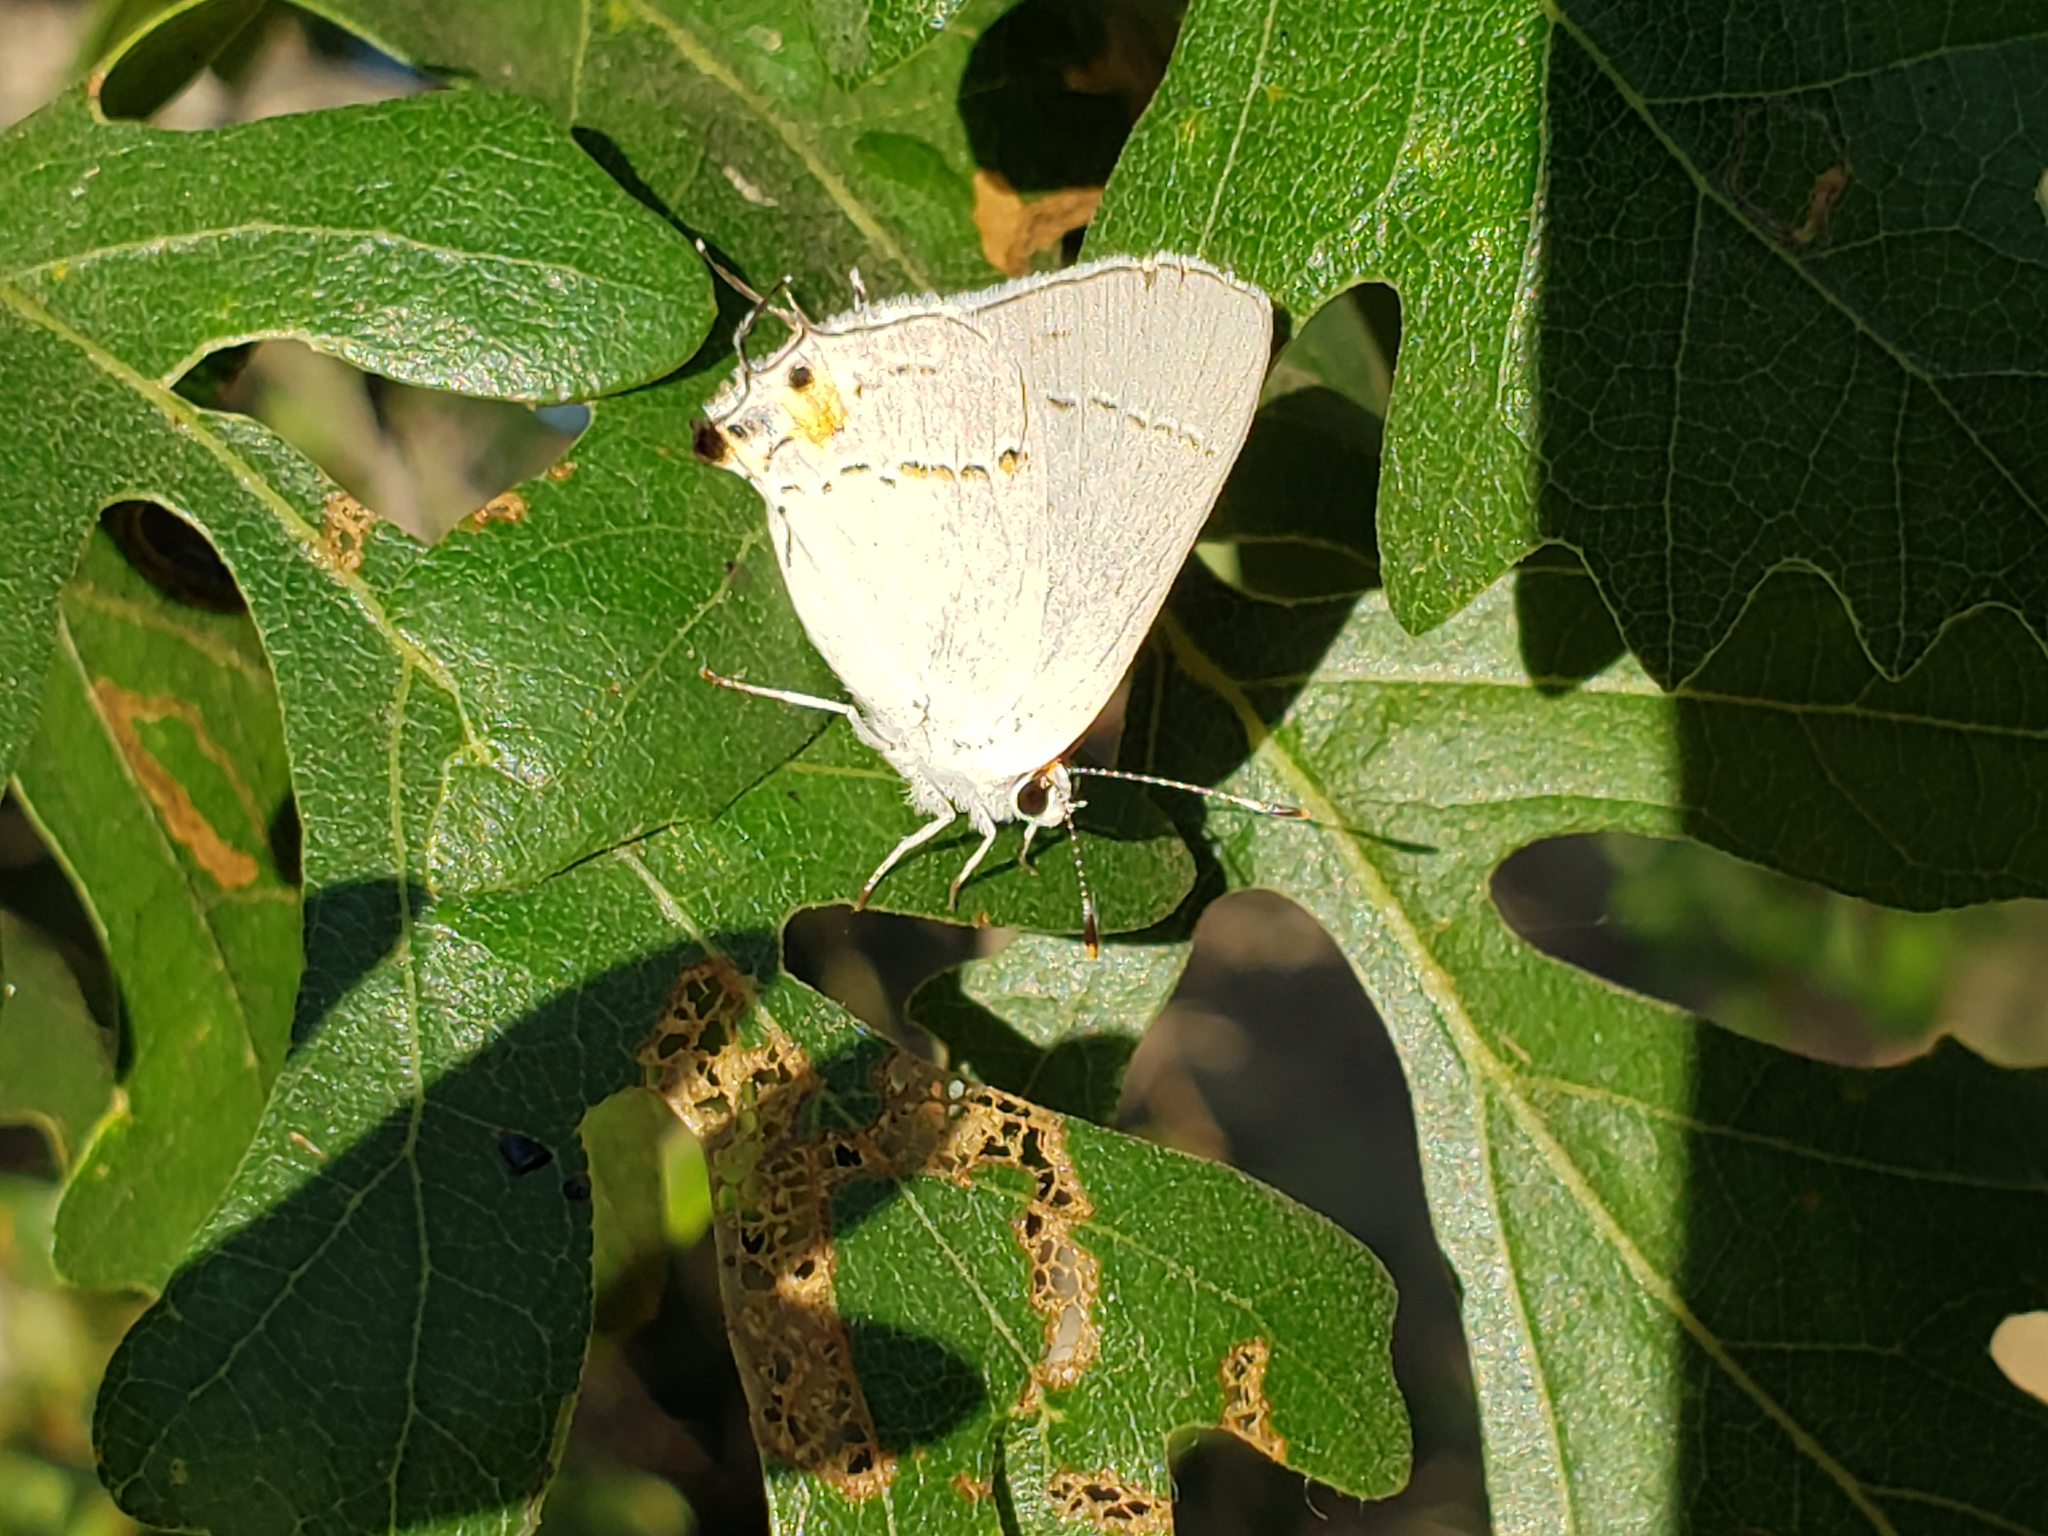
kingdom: Animalia
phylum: Arthropoda
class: Insecta
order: Lepidoptera
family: Lycaenidae
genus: Strymon
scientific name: Strymon melinus
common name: Gray hairstreak
